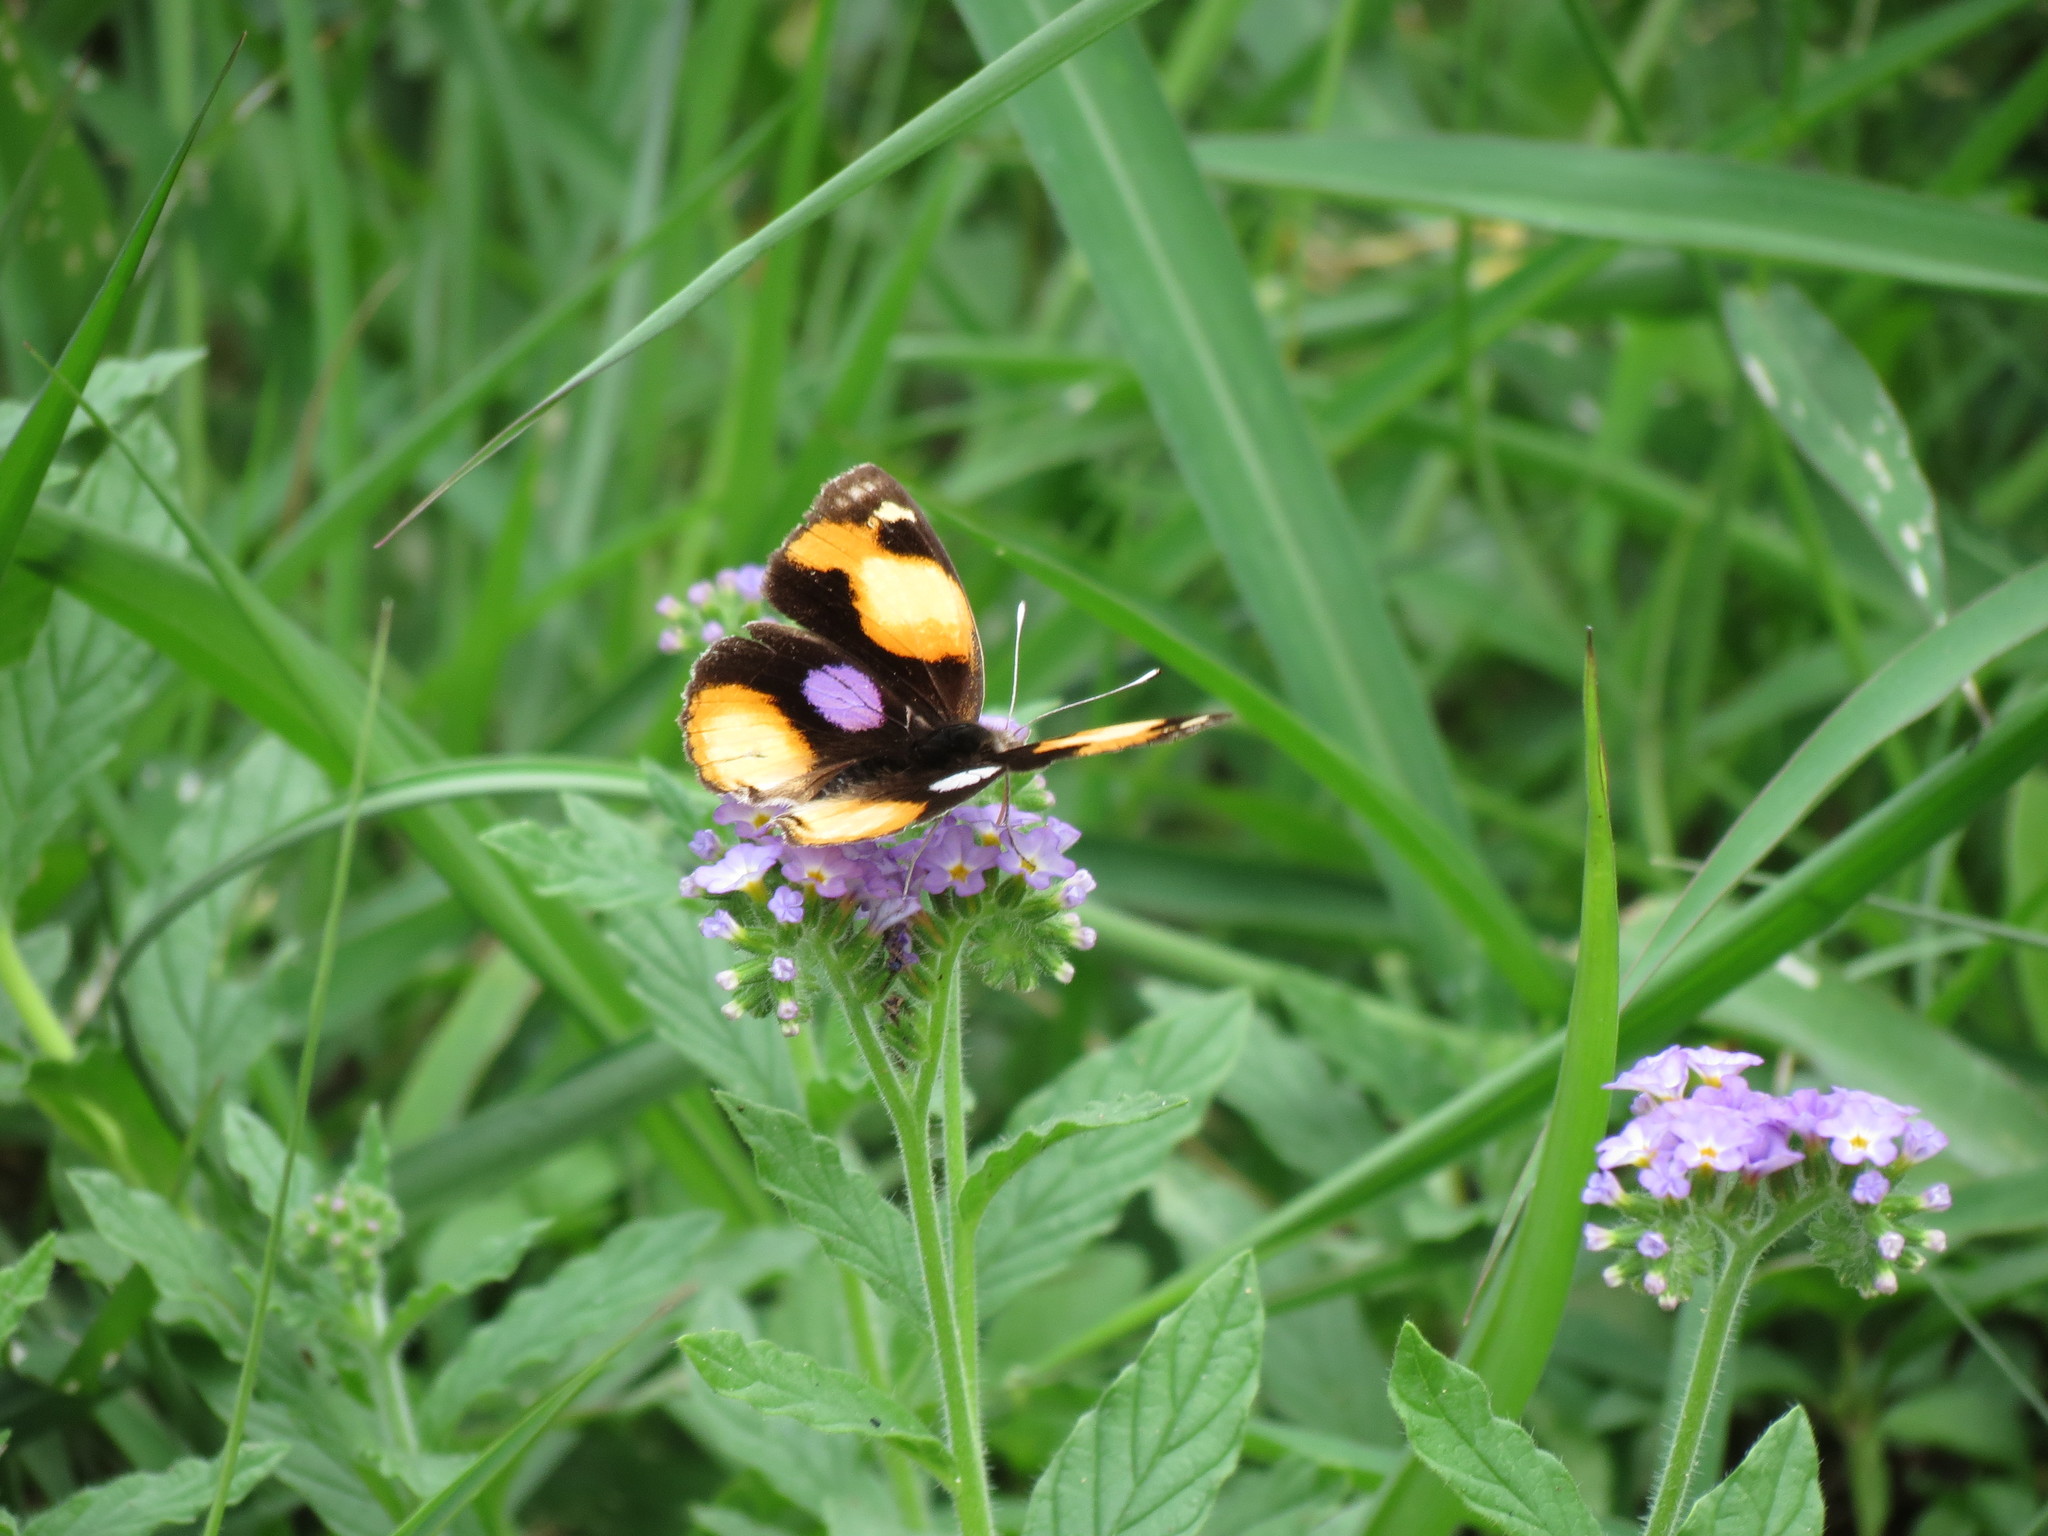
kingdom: Animalia
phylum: Arthropoda
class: Insecta
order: Lepidoptera
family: Nymphalidae
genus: Junonia
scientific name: Junonia hierta
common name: Yellow pansy
